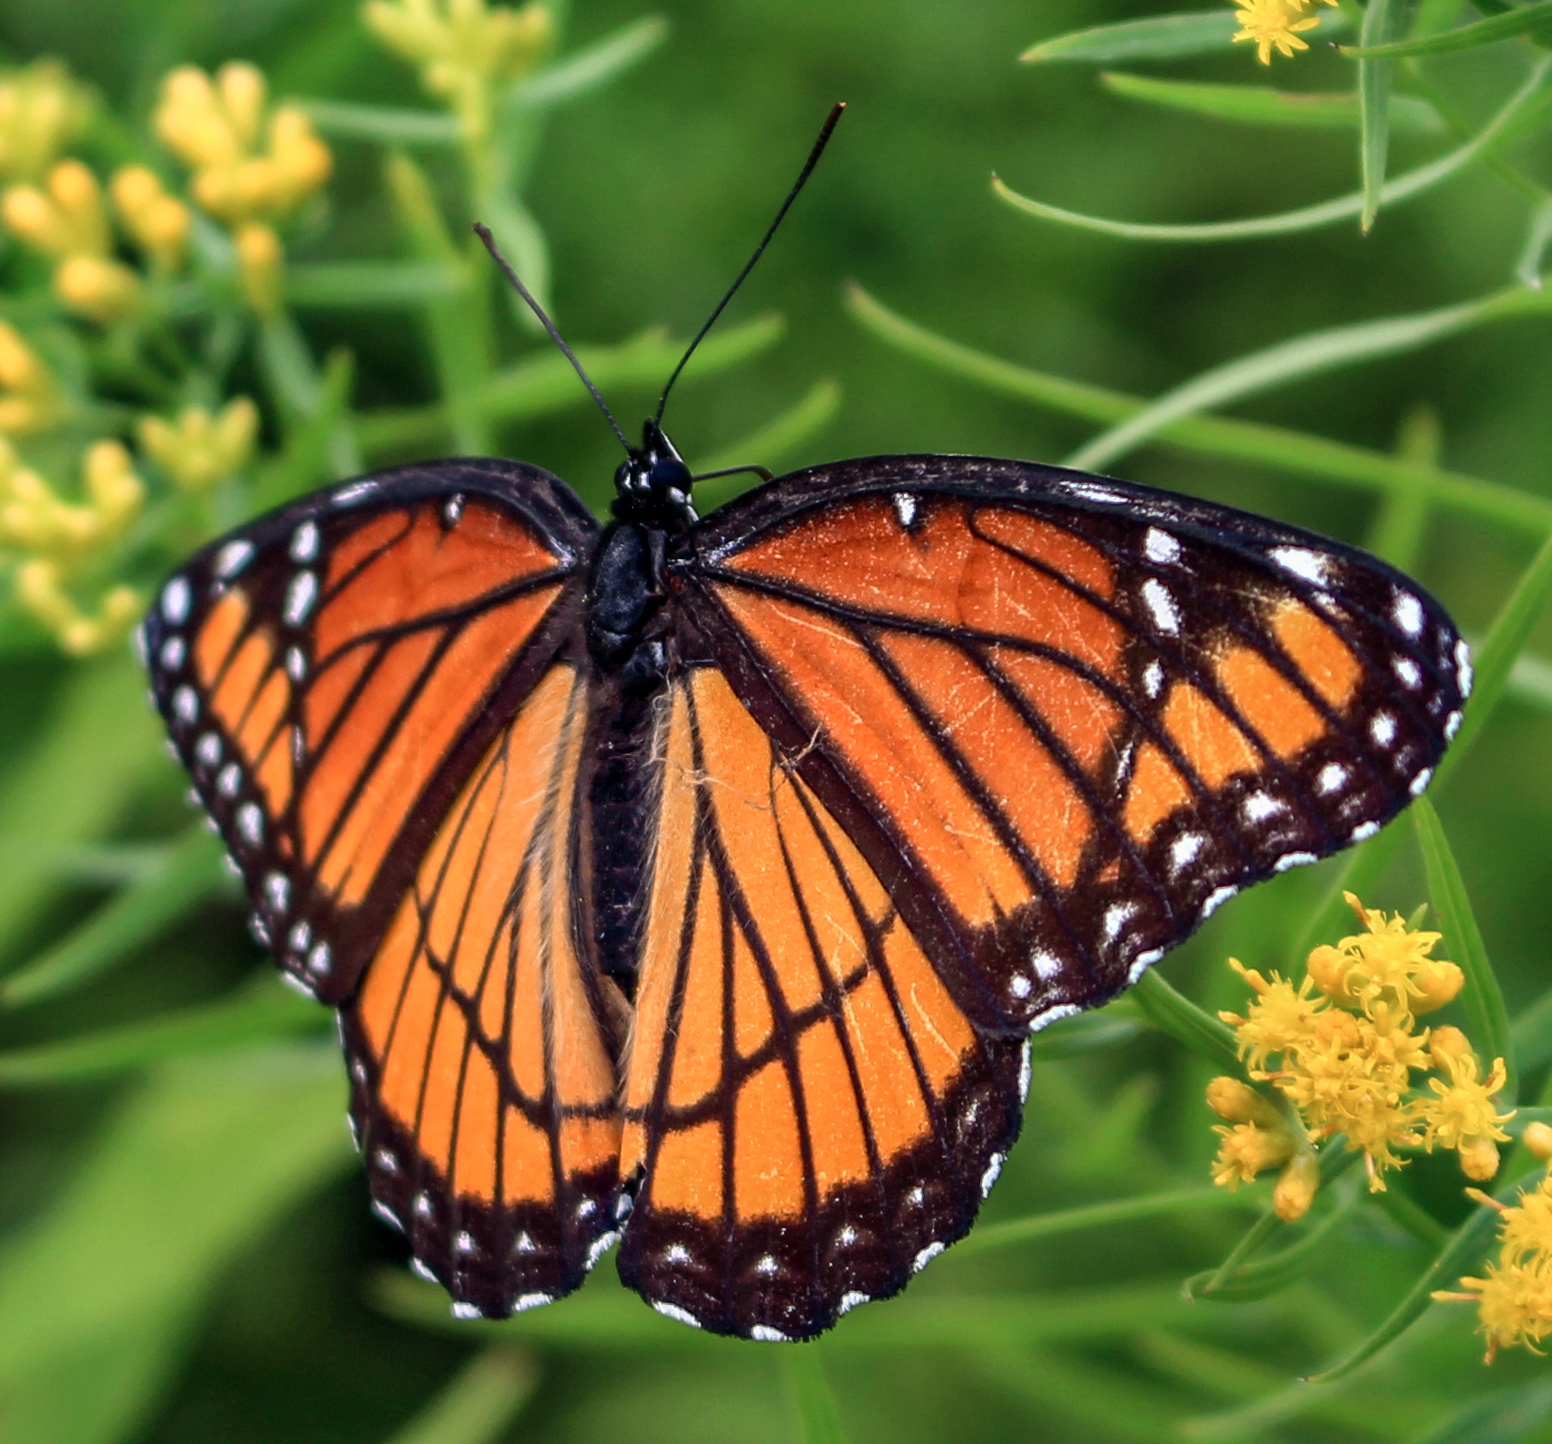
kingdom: Animalia
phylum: Arthropoda
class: Insecta
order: Lepidoptera
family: Nymphalidae
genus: Limenitis
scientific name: Limenitis archippus
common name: Viceroy
